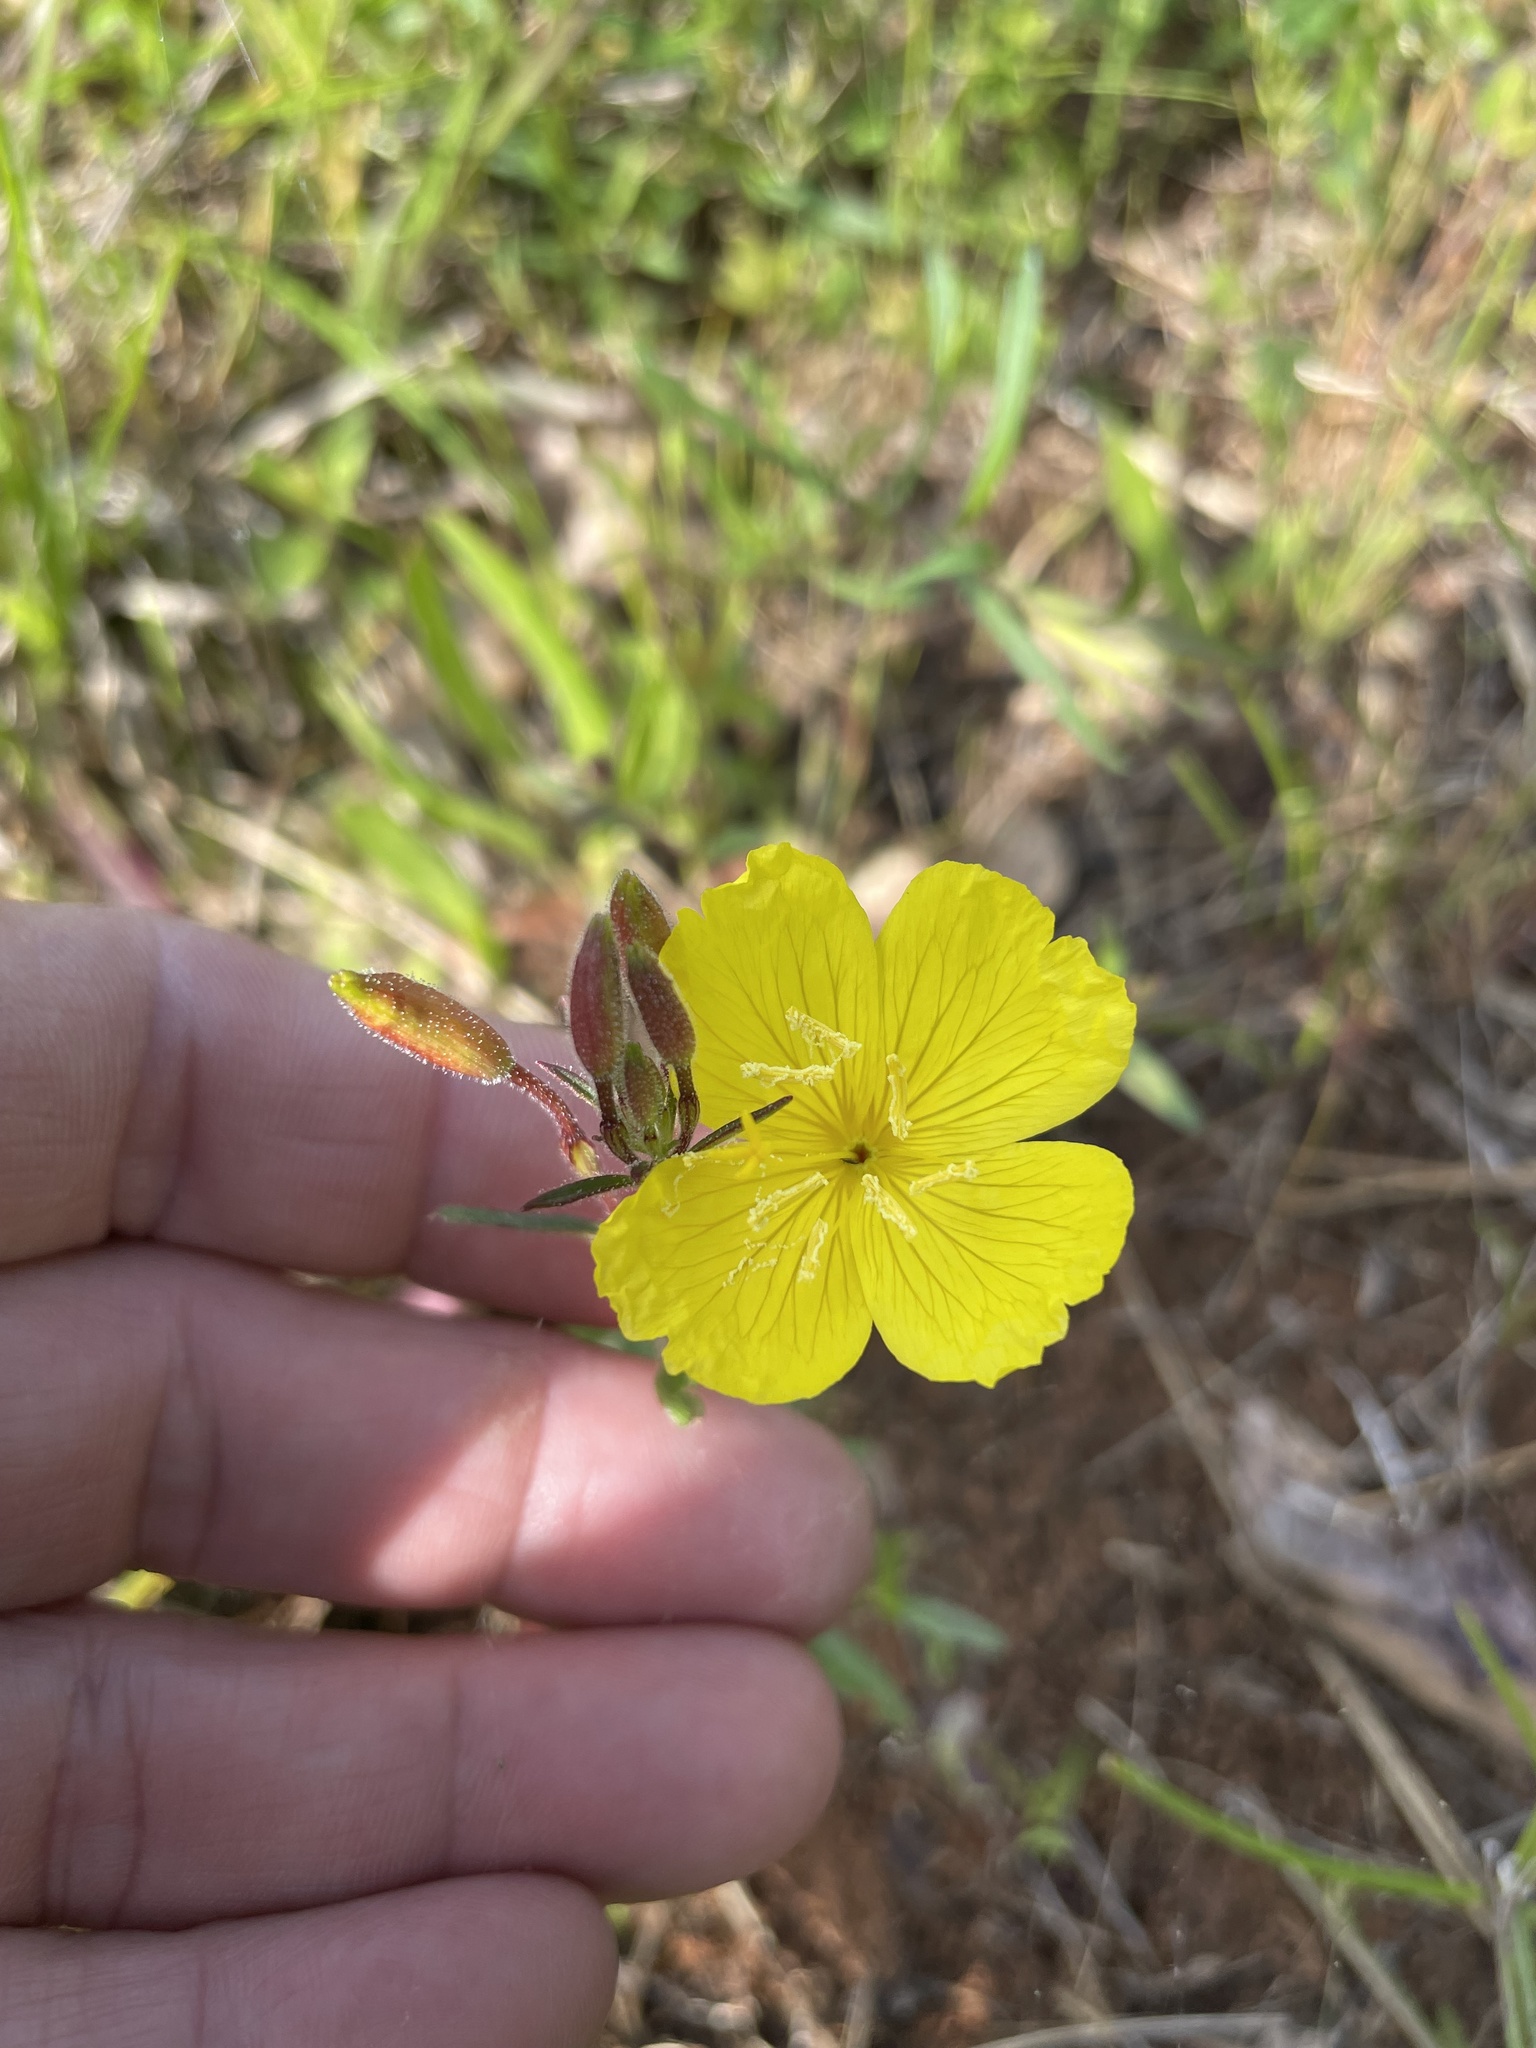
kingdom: Plantae
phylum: Tracheophyta
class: Magnoliopsida
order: Myrtales
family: Onagraceae
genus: Oenothera
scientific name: Oenothera fruticosa
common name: Southern sundrops
